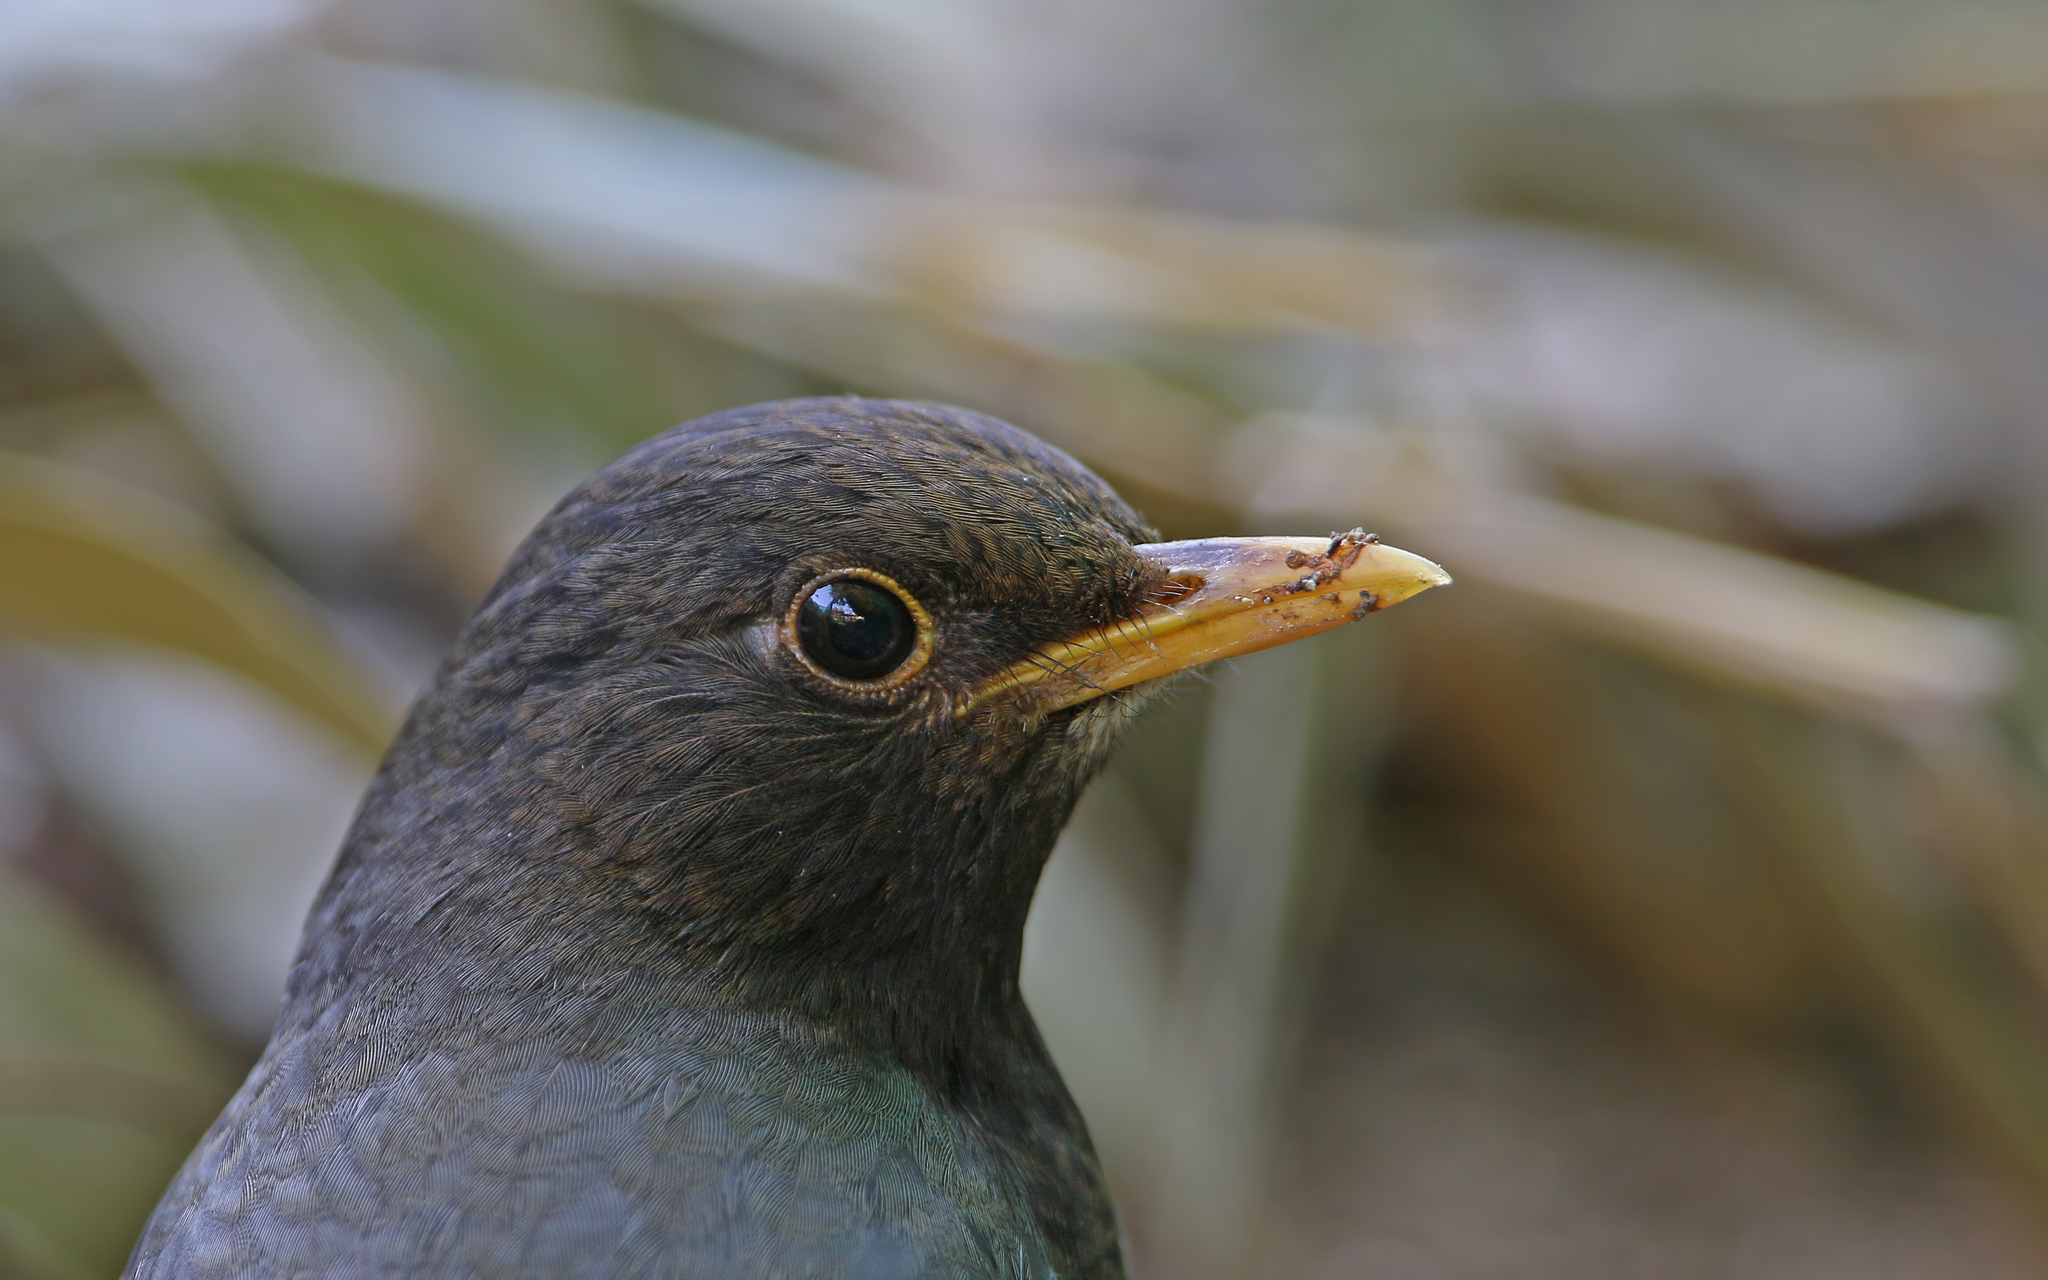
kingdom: Animalia
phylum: Chordata
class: Aves
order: Passeriformes
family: Turdidae
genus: Turdus
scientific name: Turdus dissimilis
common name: Black-breasted thrush
